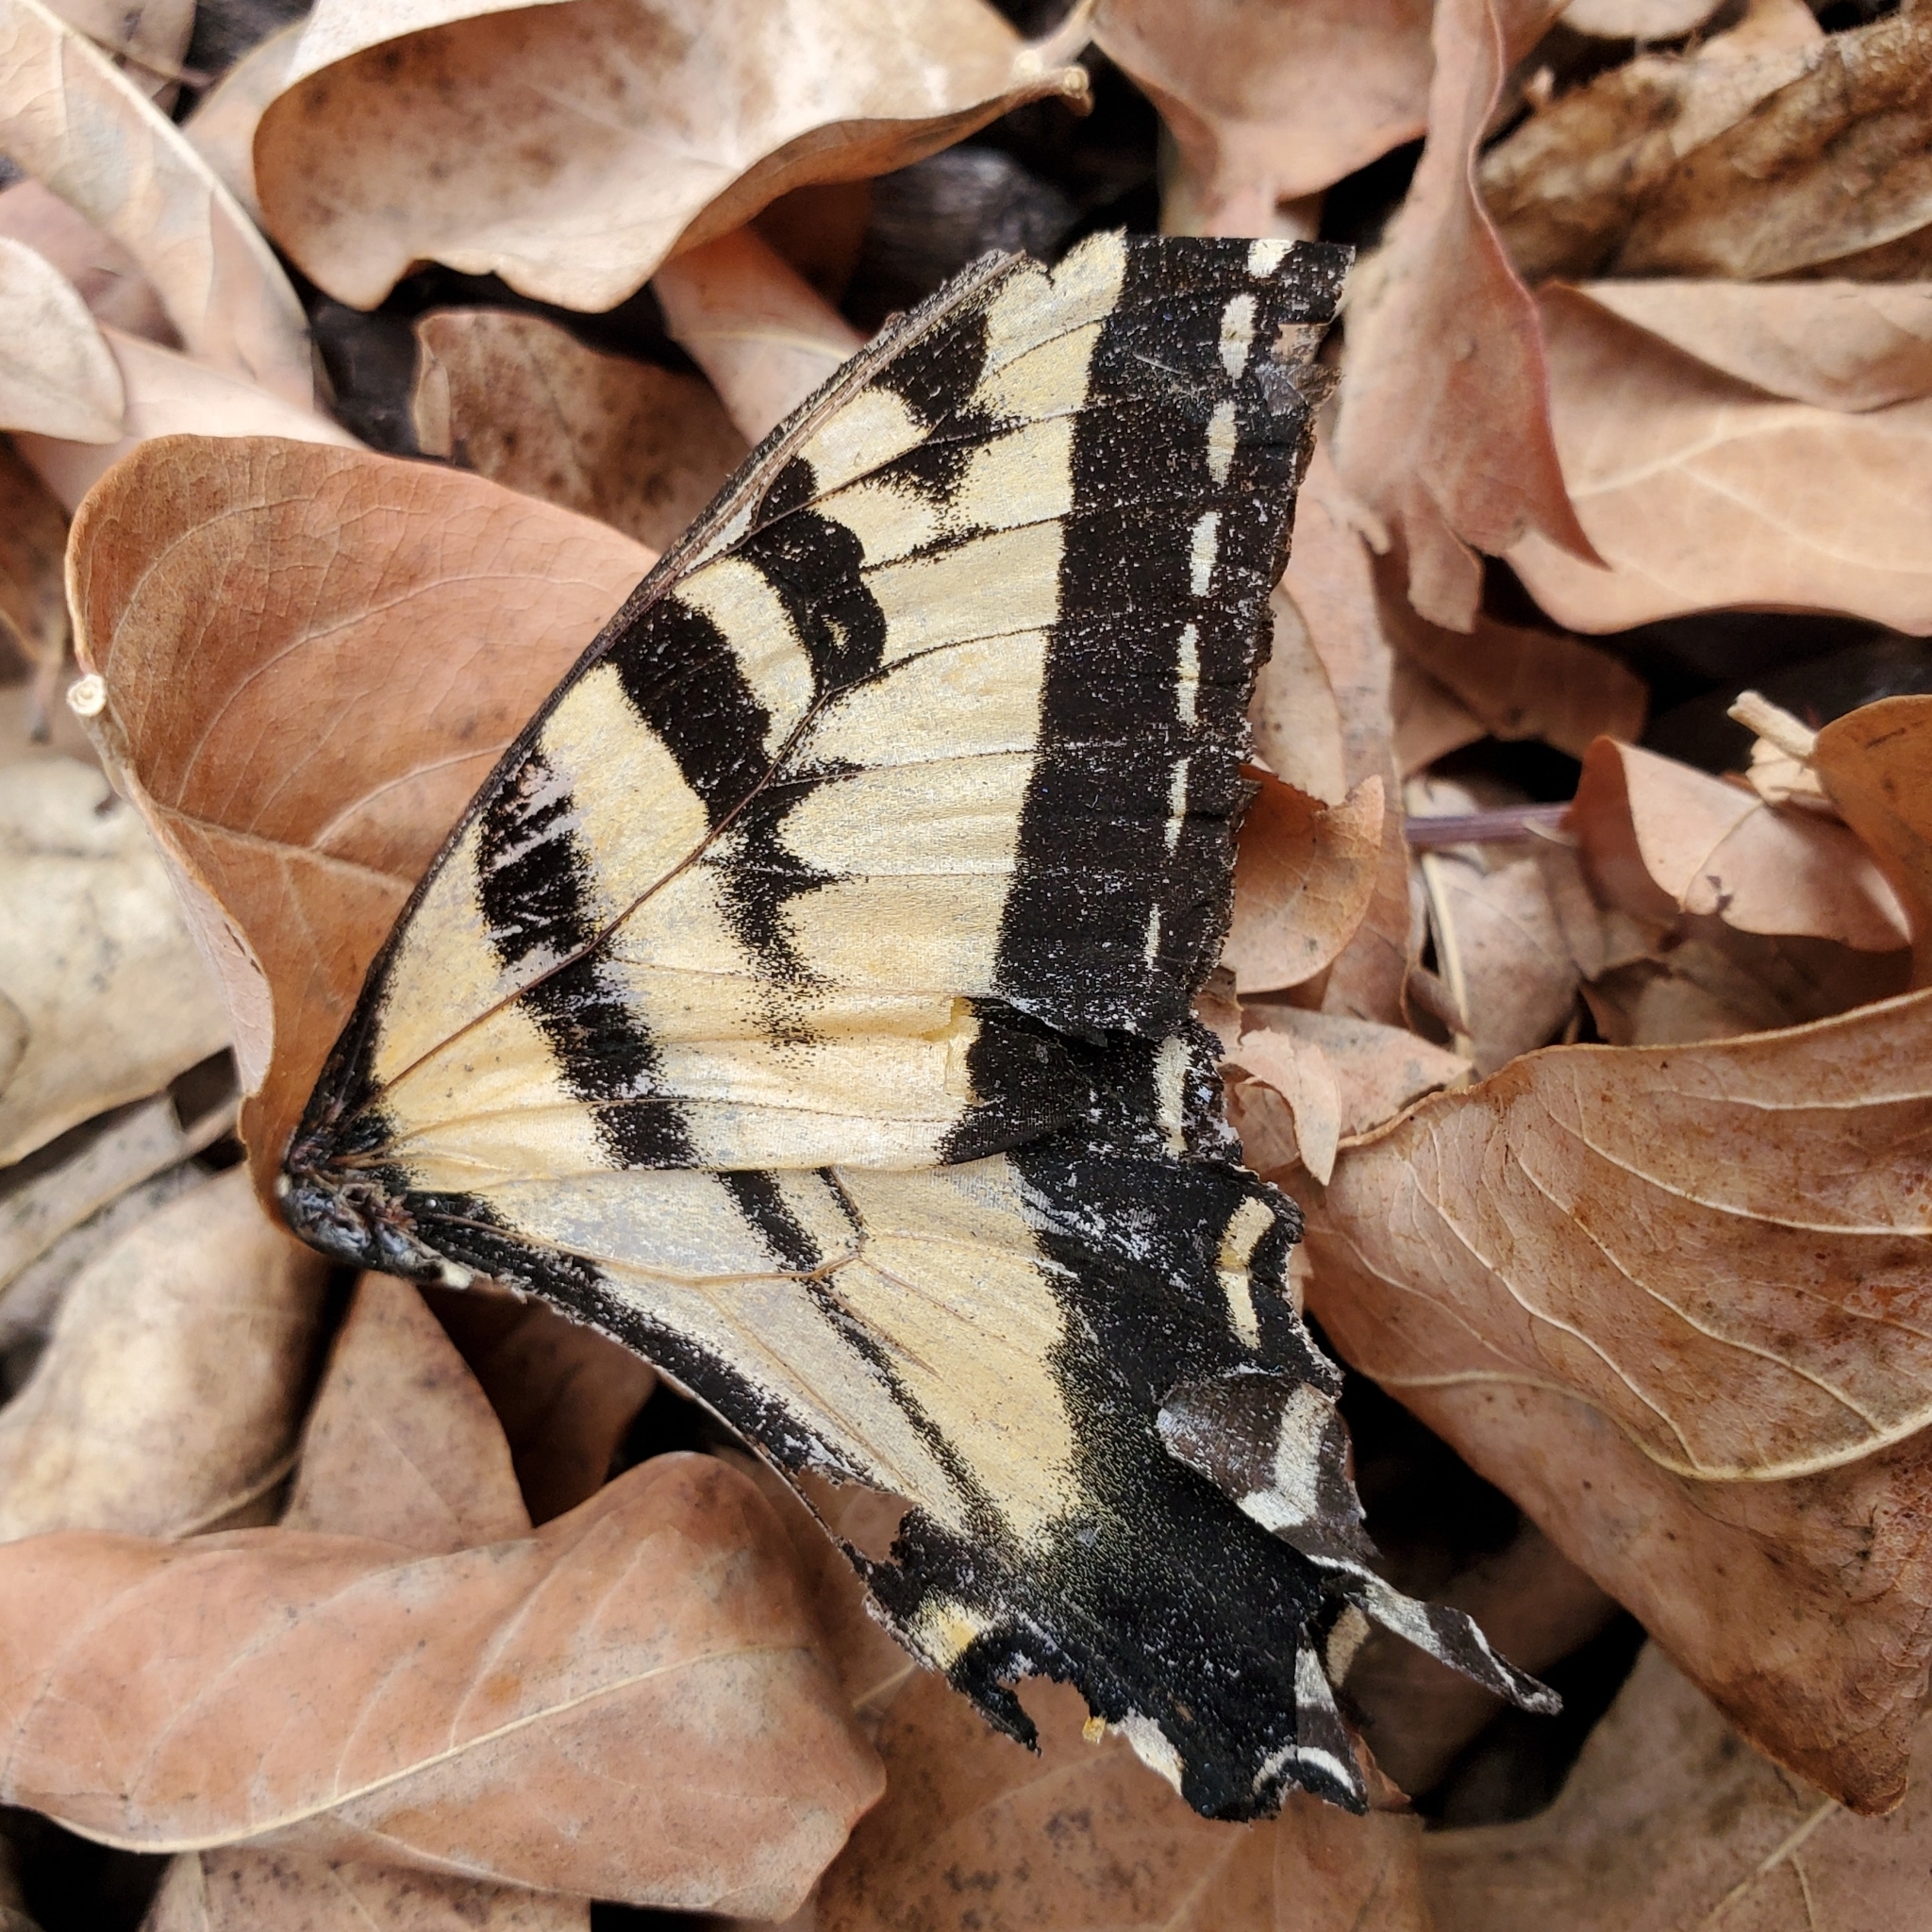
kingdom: Animalia
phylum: Arthropoda
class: Insecta
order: Lepidoptera
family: Papilionidae
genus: Papilio
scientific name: Papilio rutulus
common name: Western tiger swallowtail
